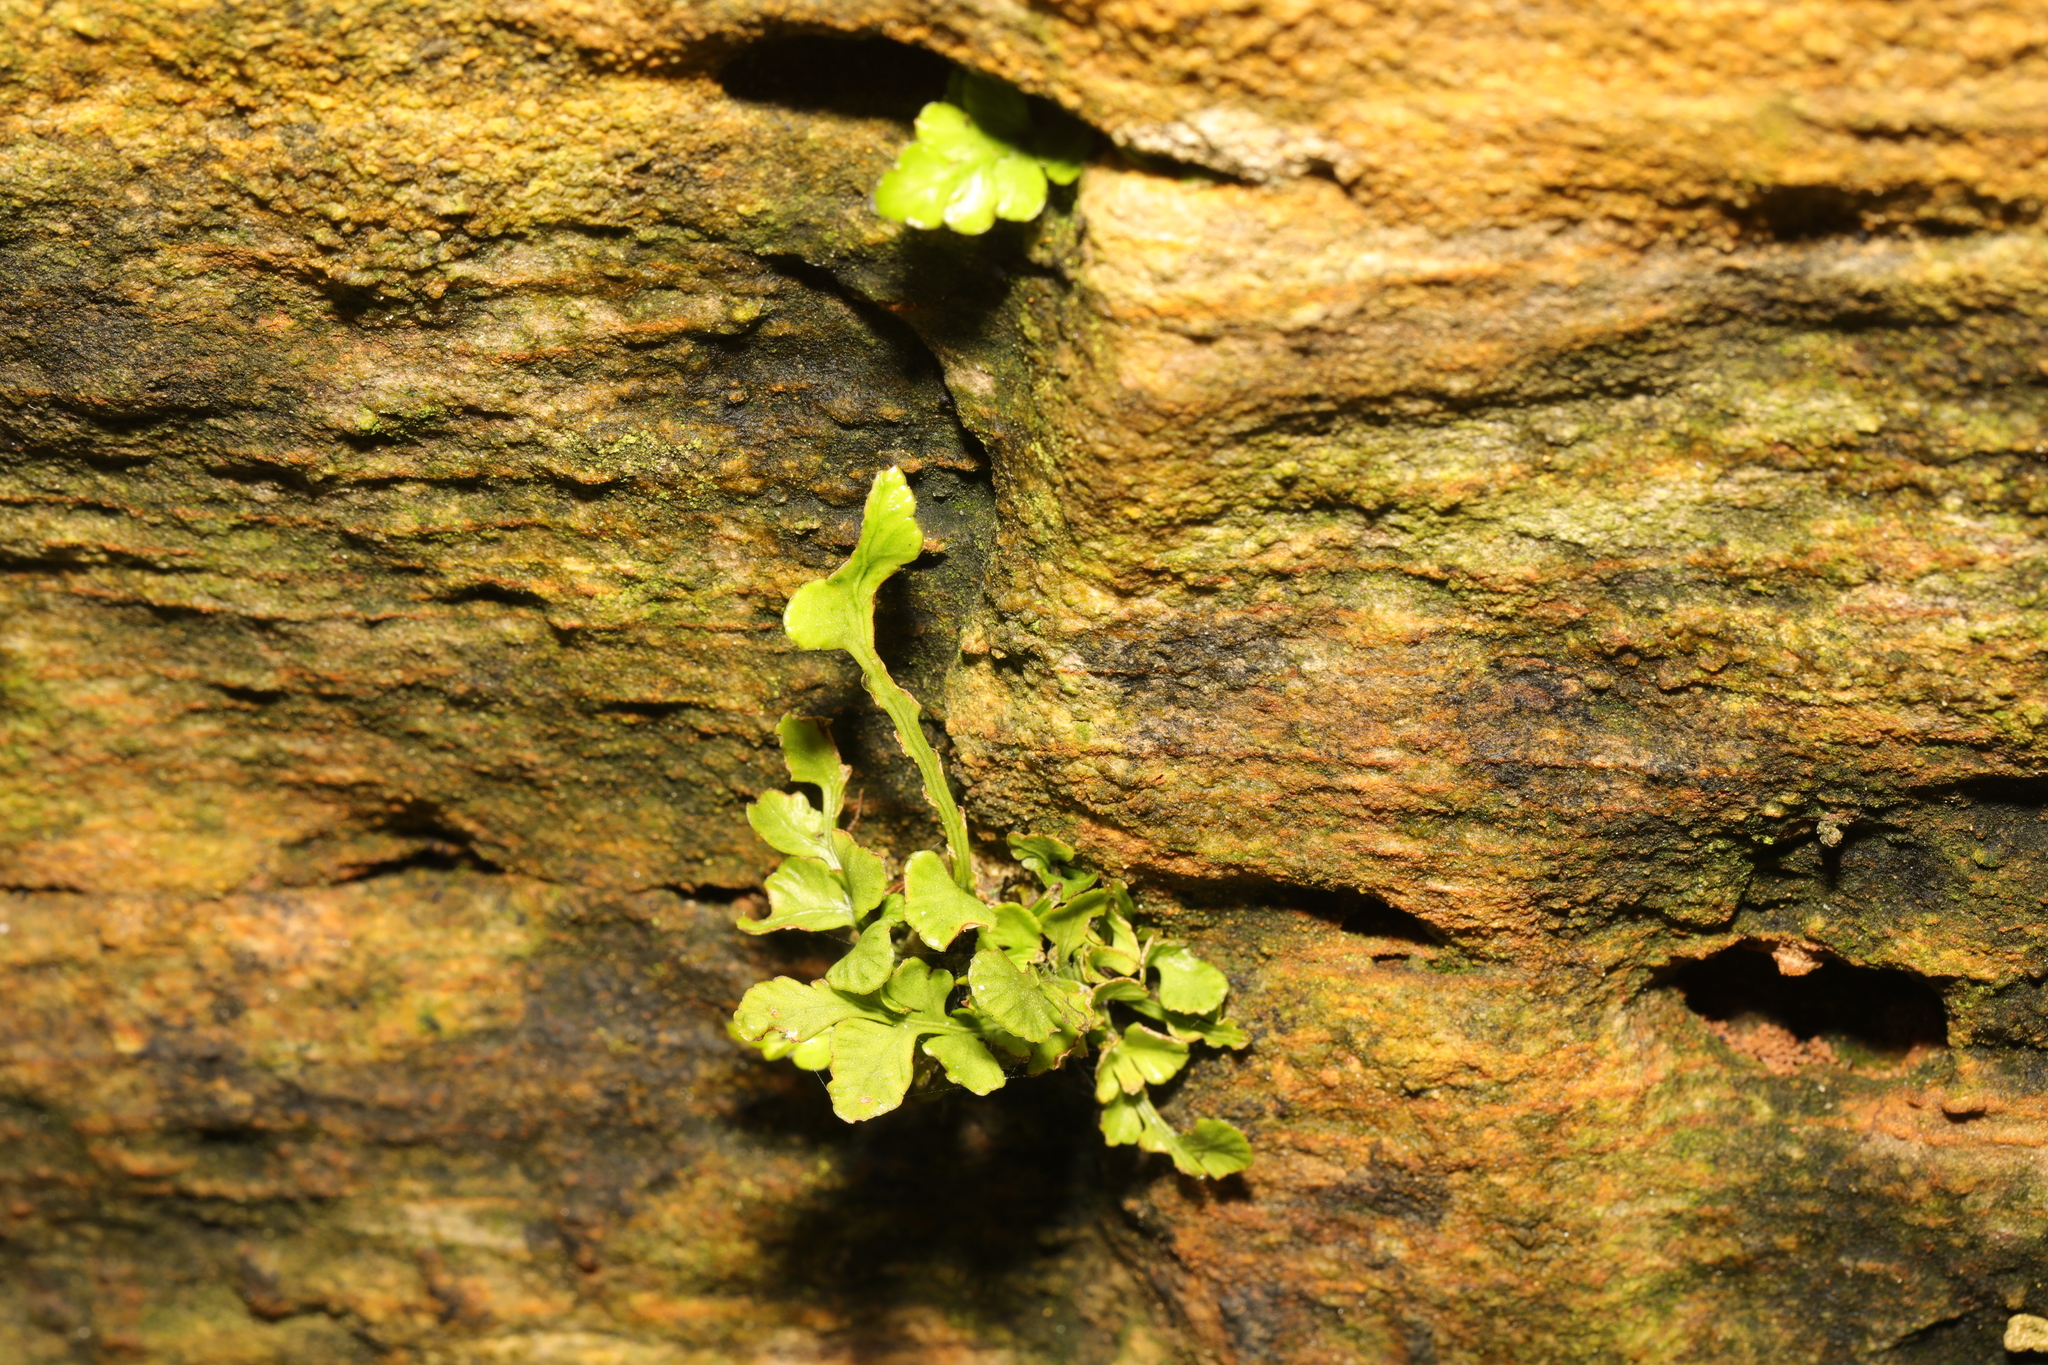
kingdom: Plantae
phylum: Tracheophyta
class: Polypodiopsida
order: Polypodiales
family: Aspleniaceae
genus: Asplenium
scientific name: Asplenium ruta-muraria
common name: Wall-rue
